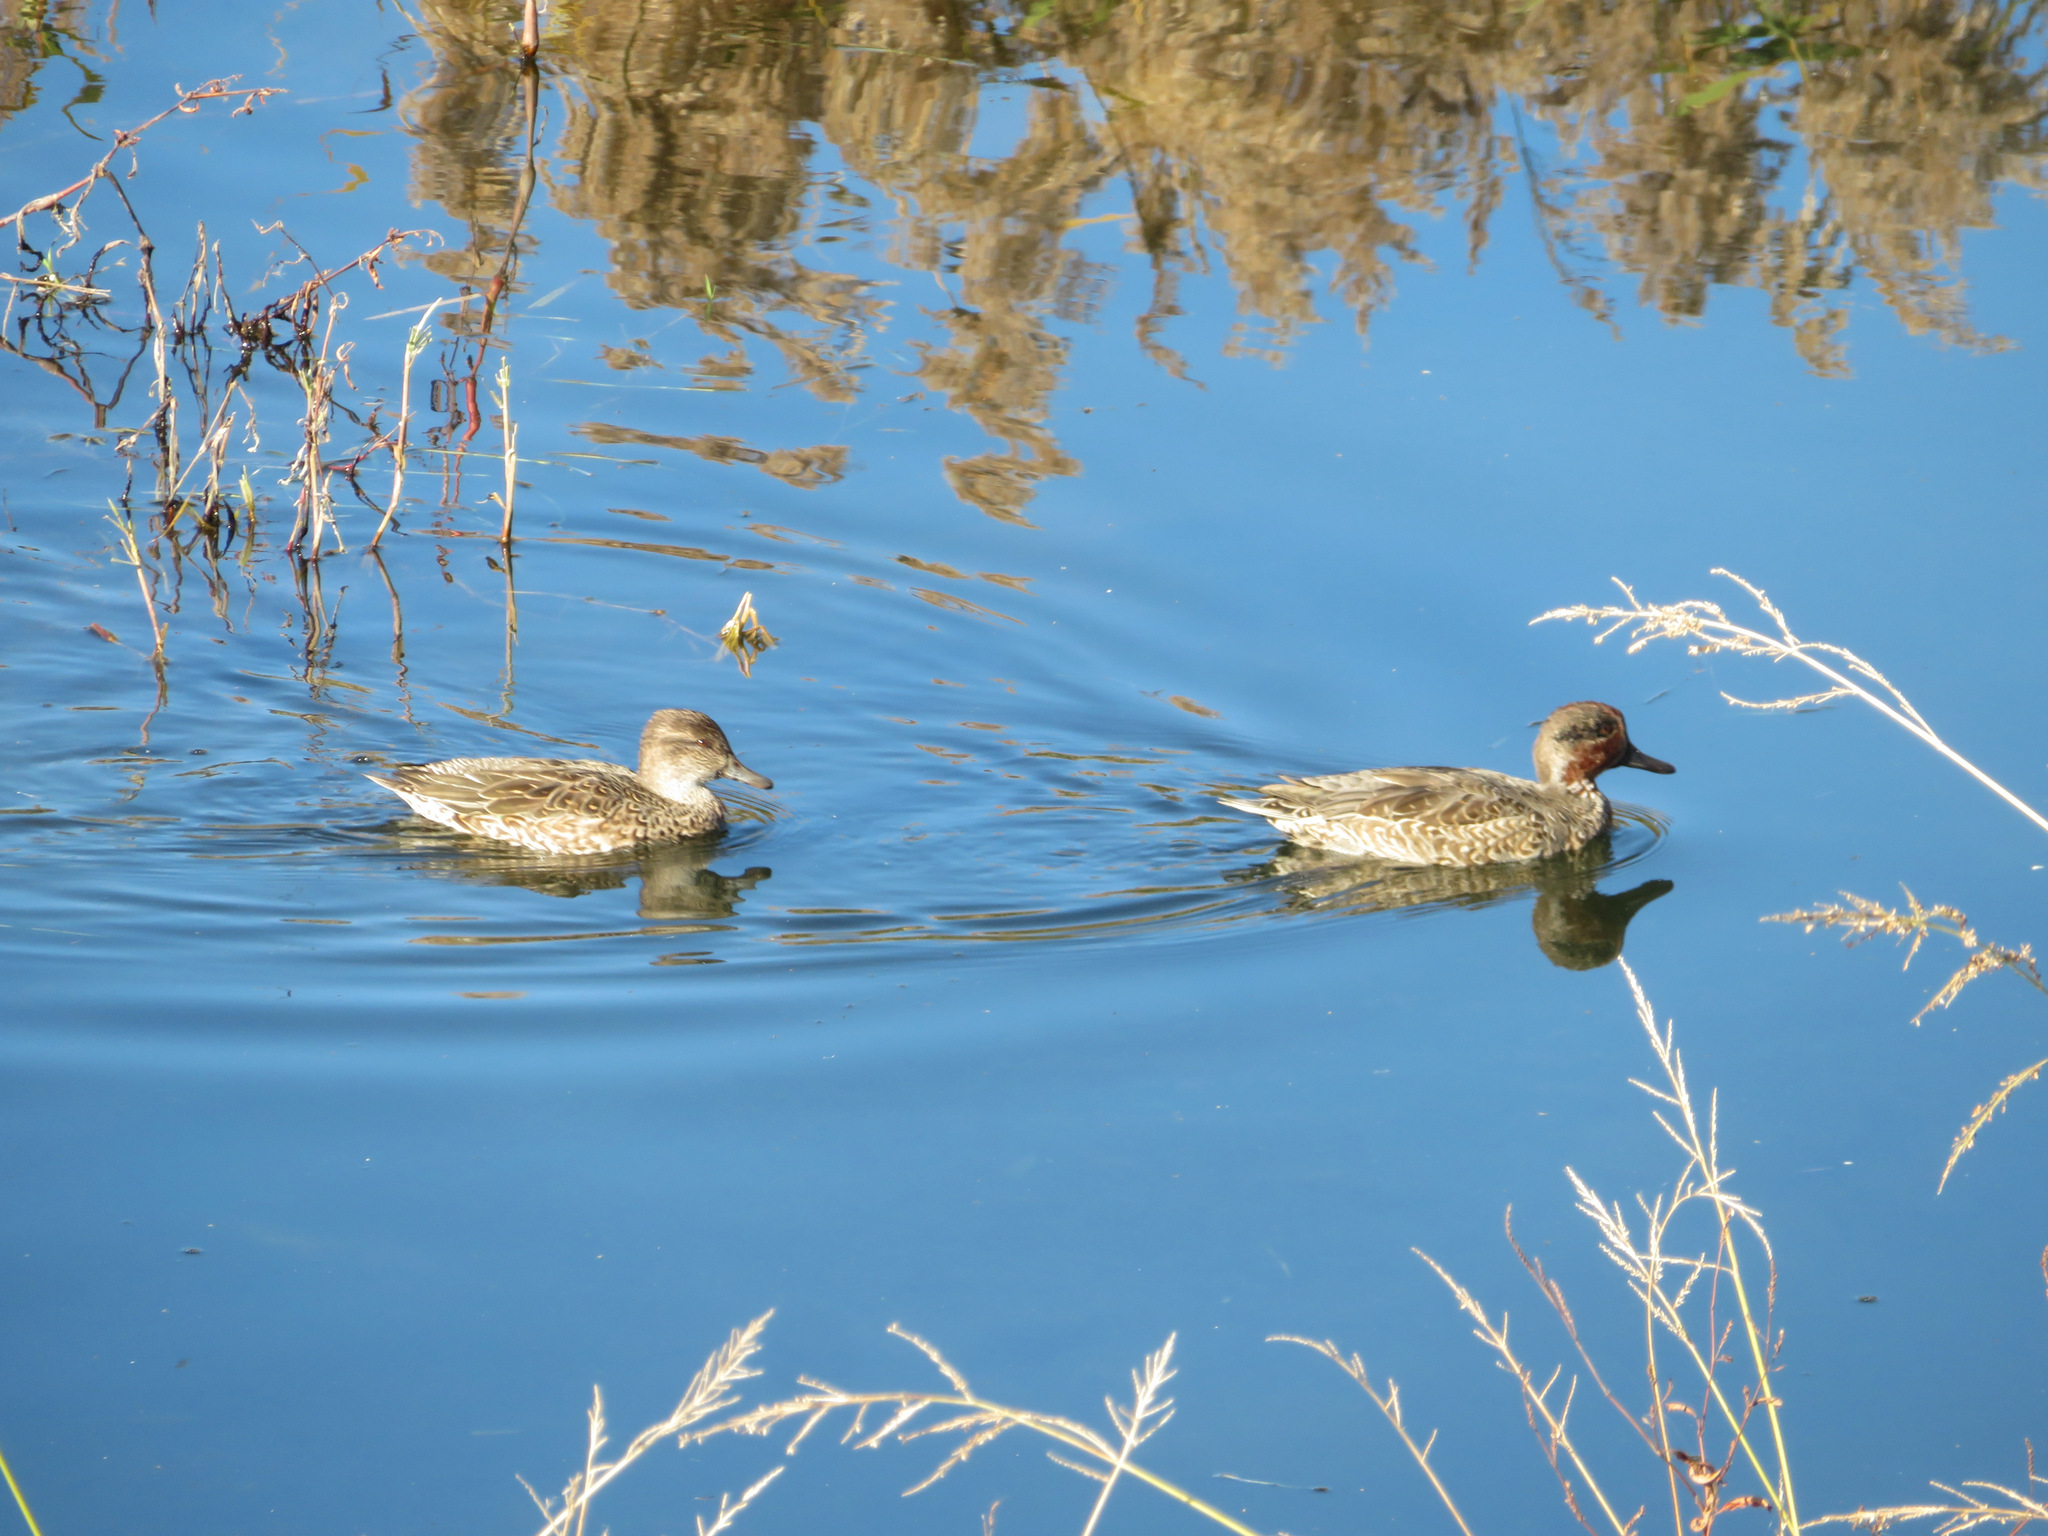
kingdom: Animalia
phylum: Chordata
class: Aves
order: Anseriformes
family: Anatidae
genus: Anas
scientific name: Anas crecca
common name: Eurasian teal
